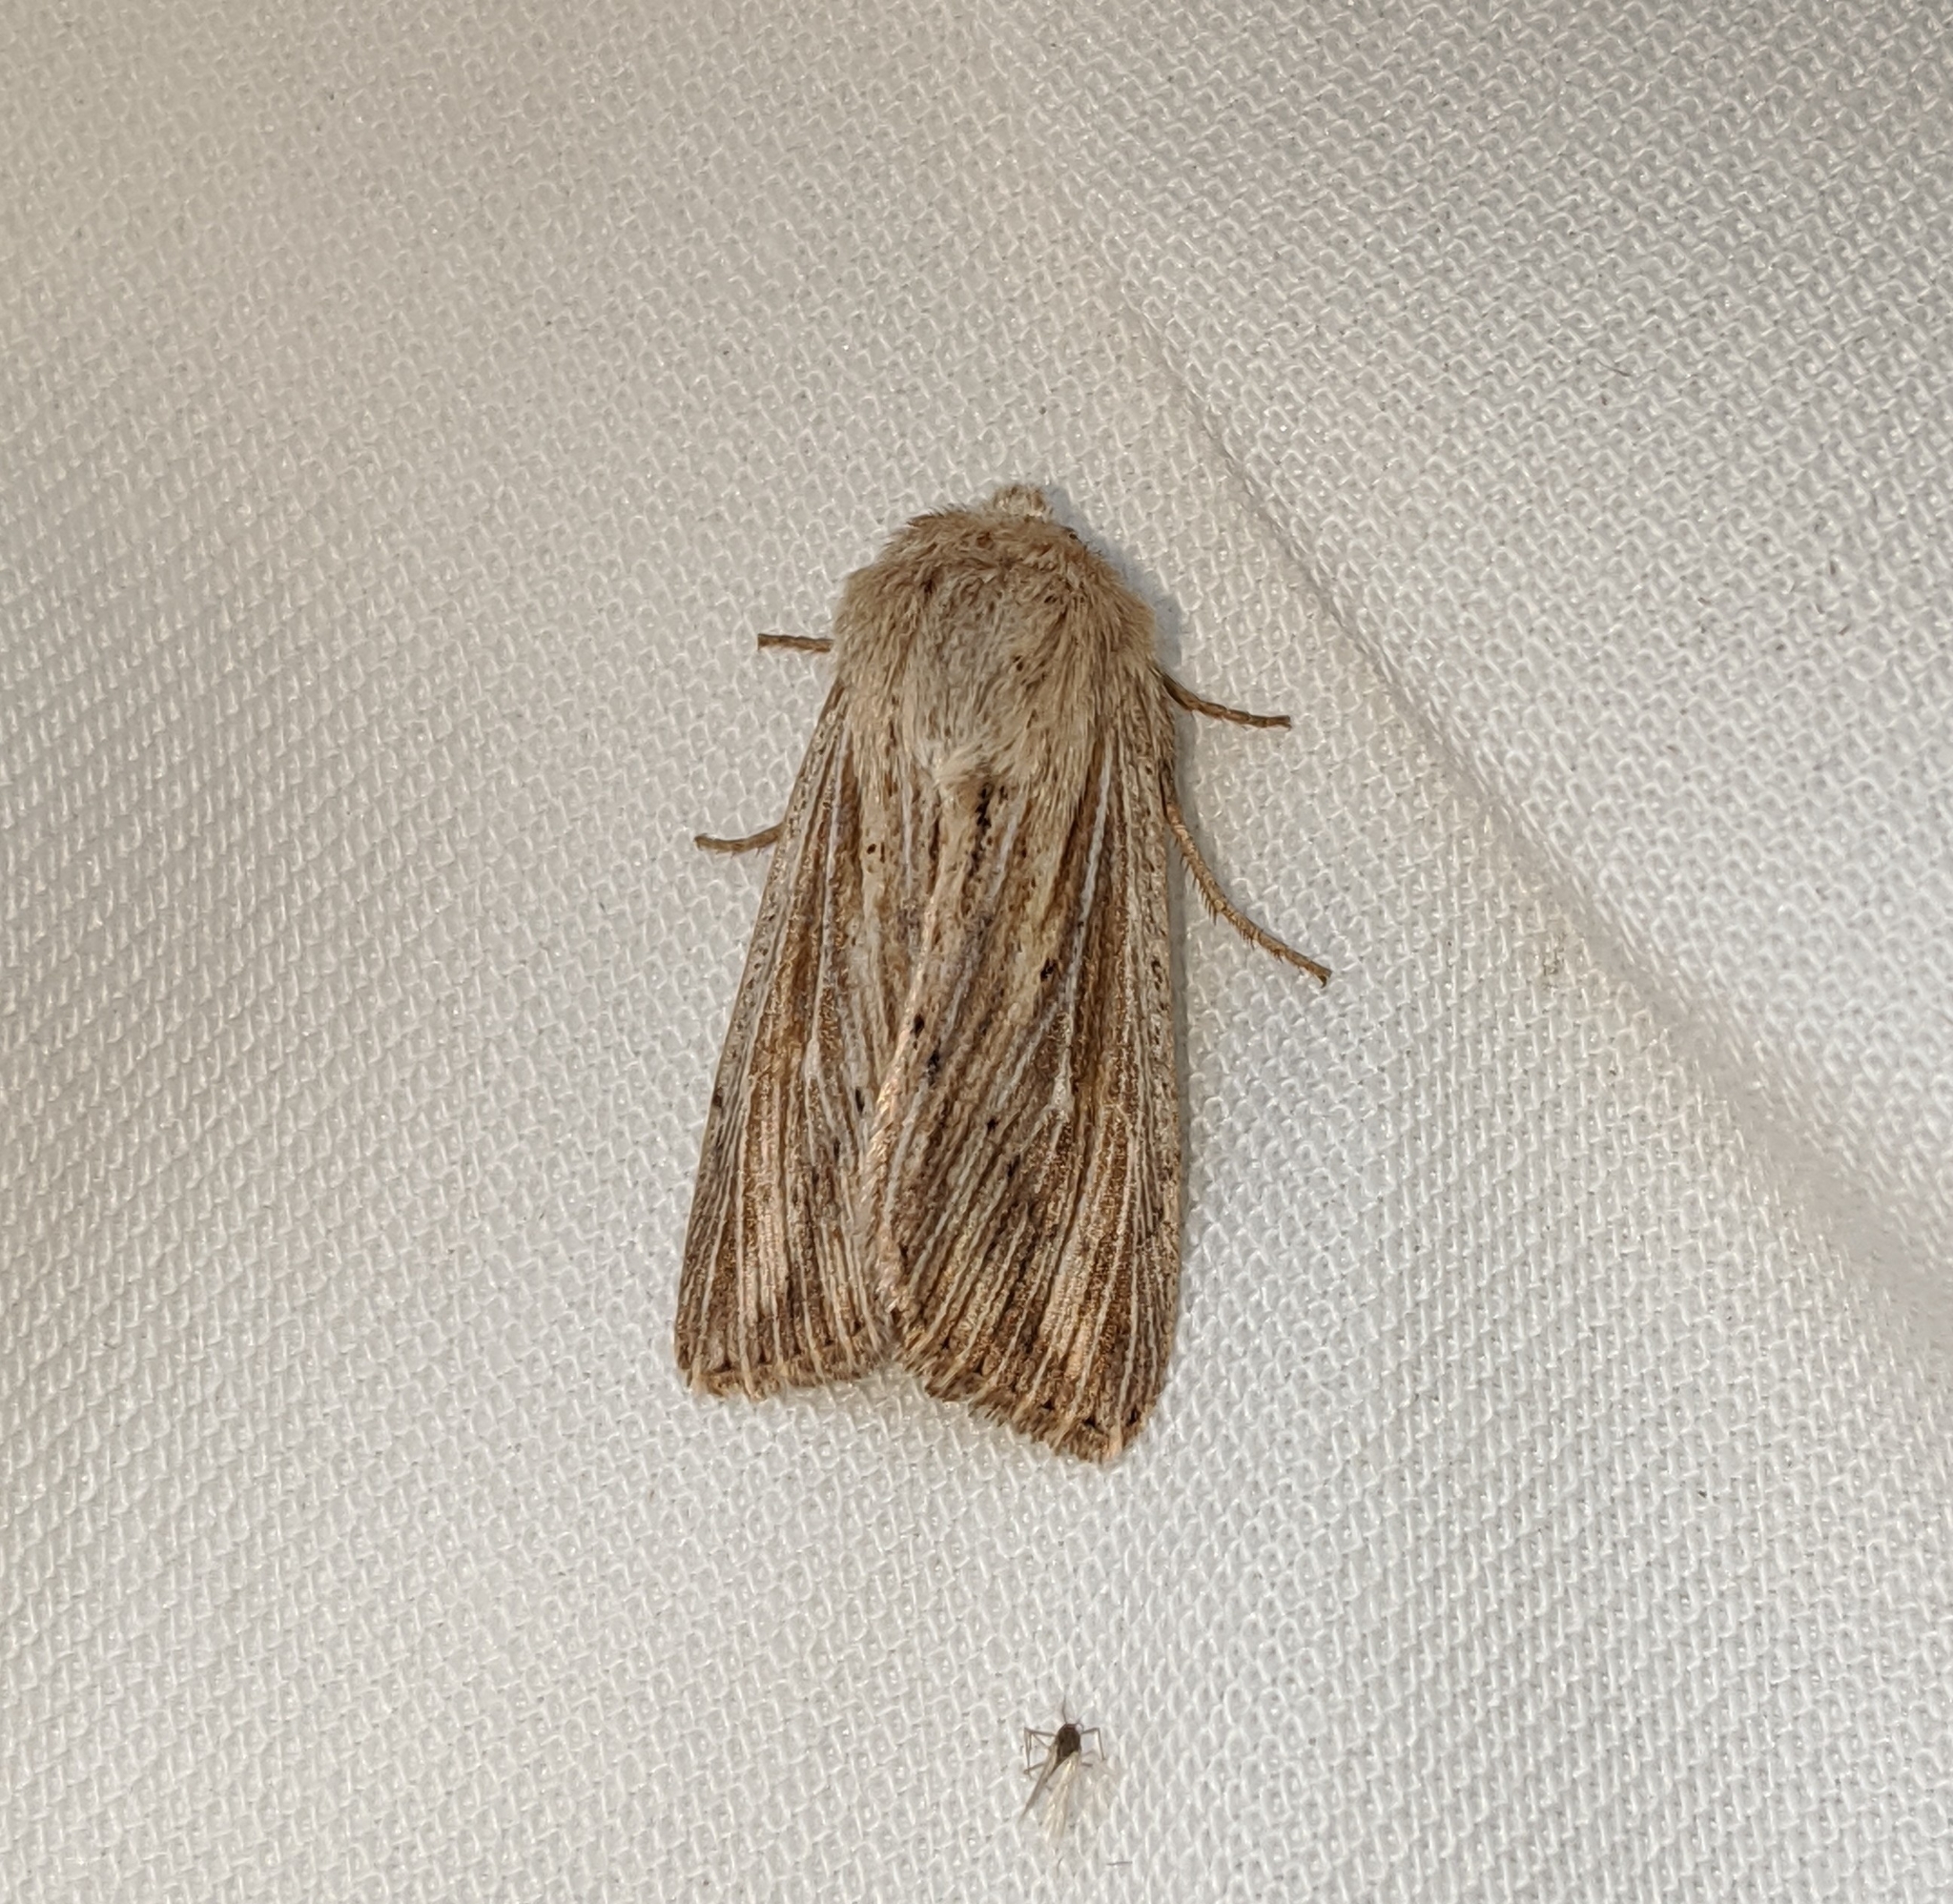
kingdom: Animalia
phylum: Arthropoda
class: Insecta
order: Lepidoptera
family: Noctuidae
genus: Leucania
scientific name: Leucania insueta
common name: Heterodox wainscot moth
